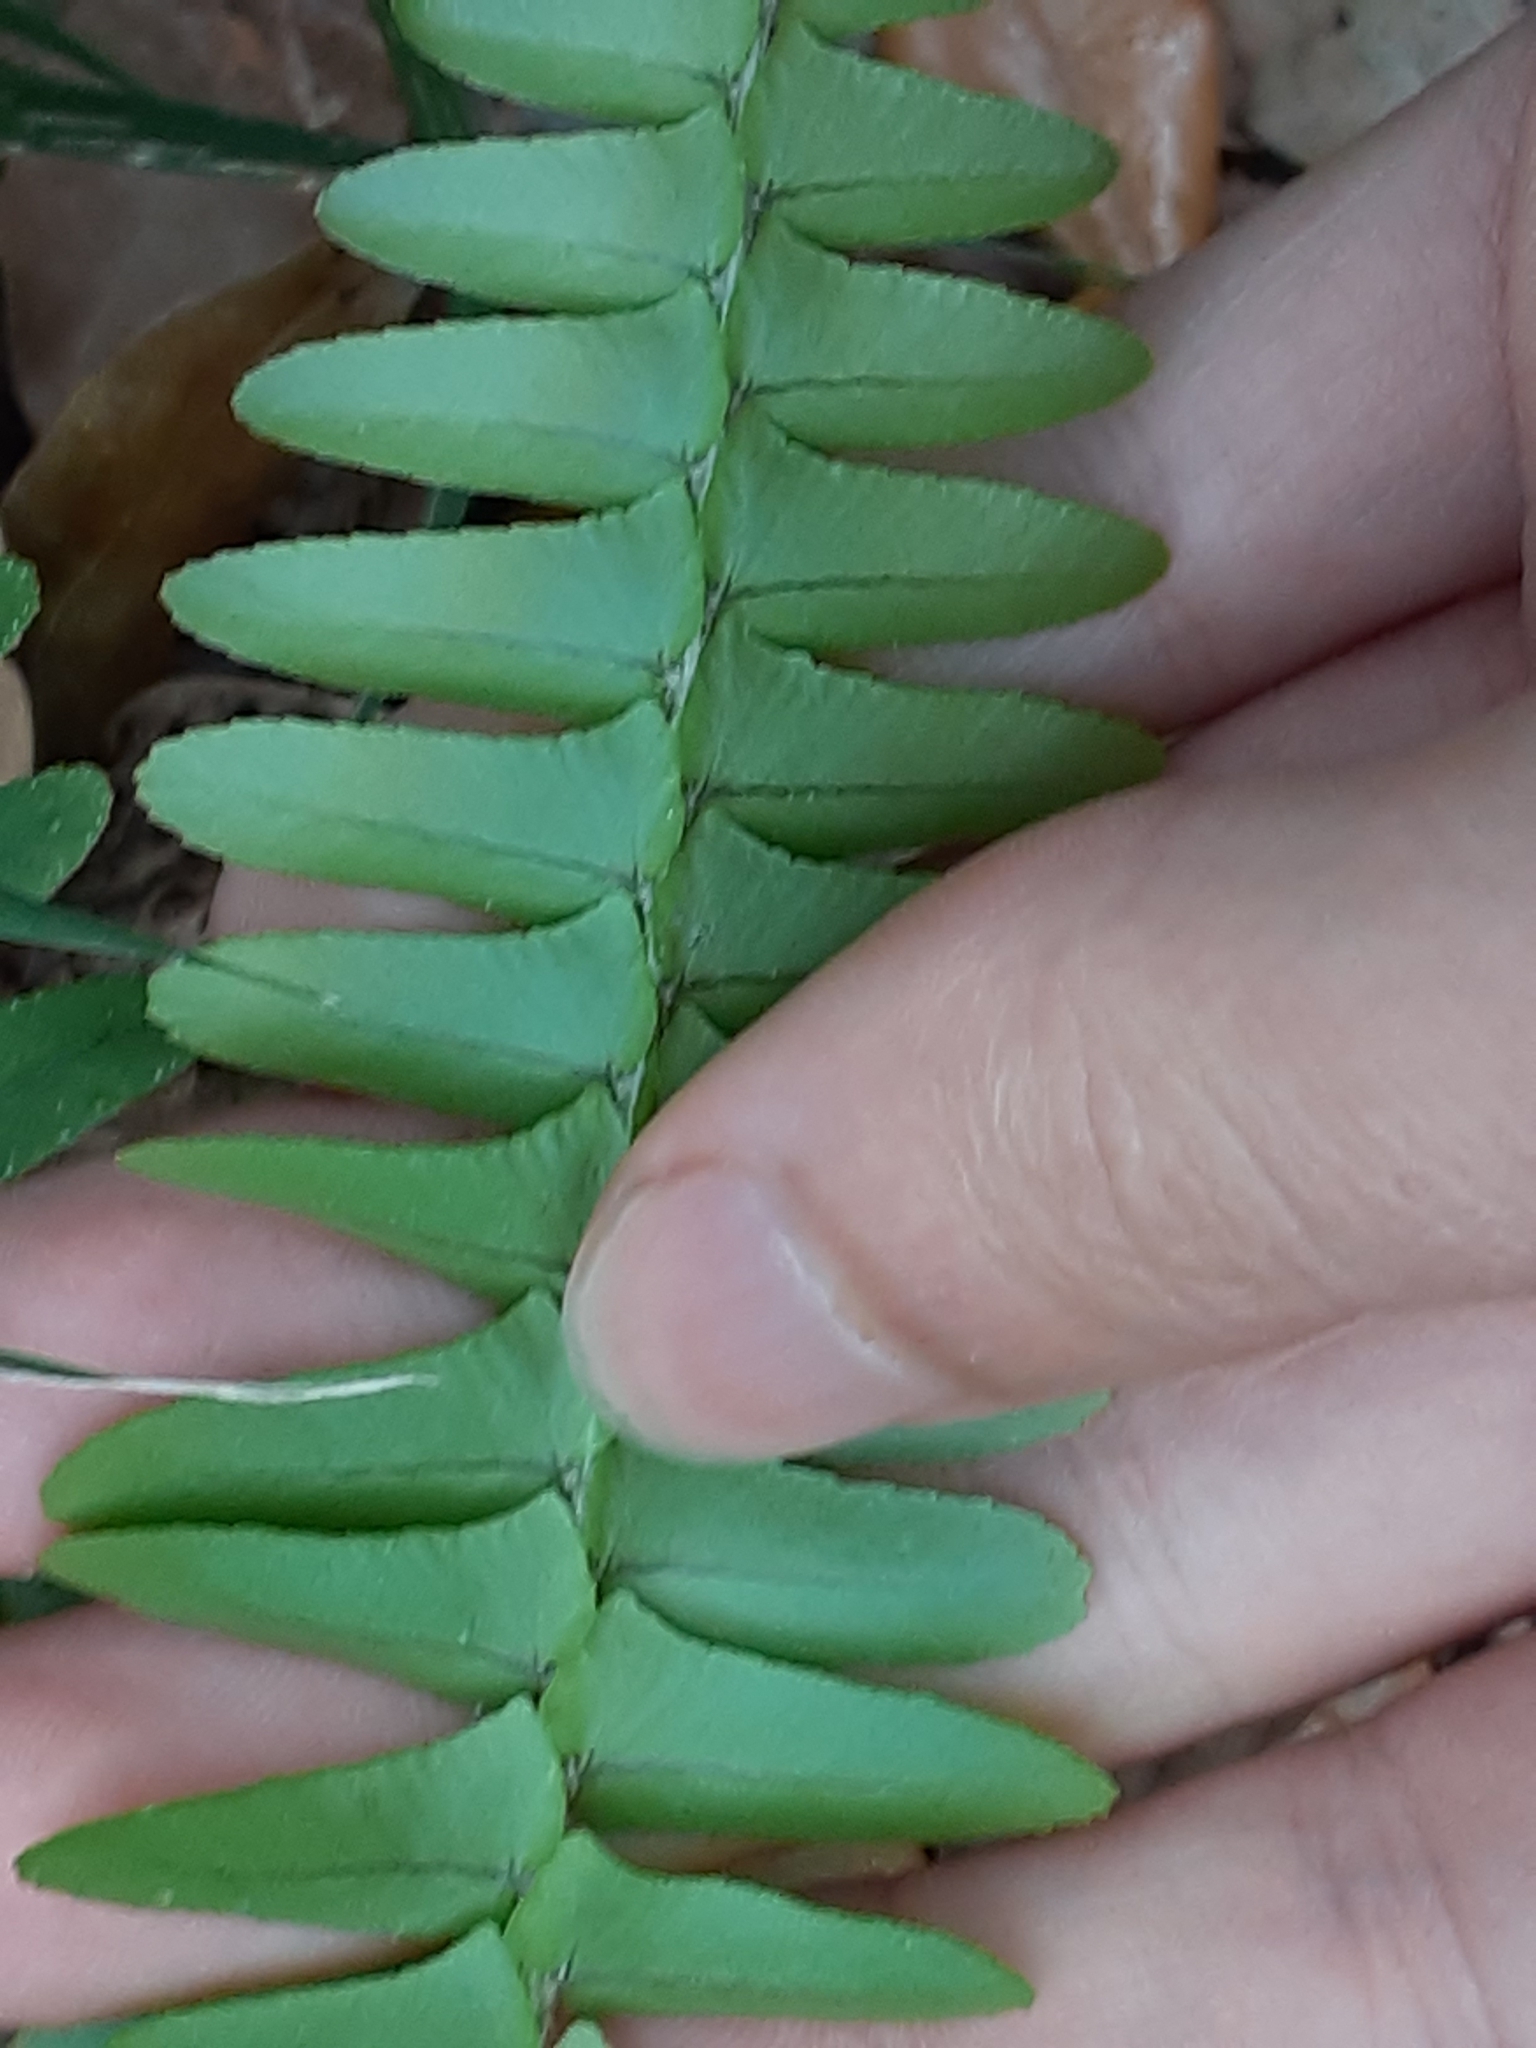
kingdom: Plantae
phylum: Tracheophyta
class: Polypodiopsida
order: Polypodiales
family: Nephrolepidaceae
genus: Nephrolepis
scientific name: Nephrolepis cordifolia
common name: Narrow swordfern
